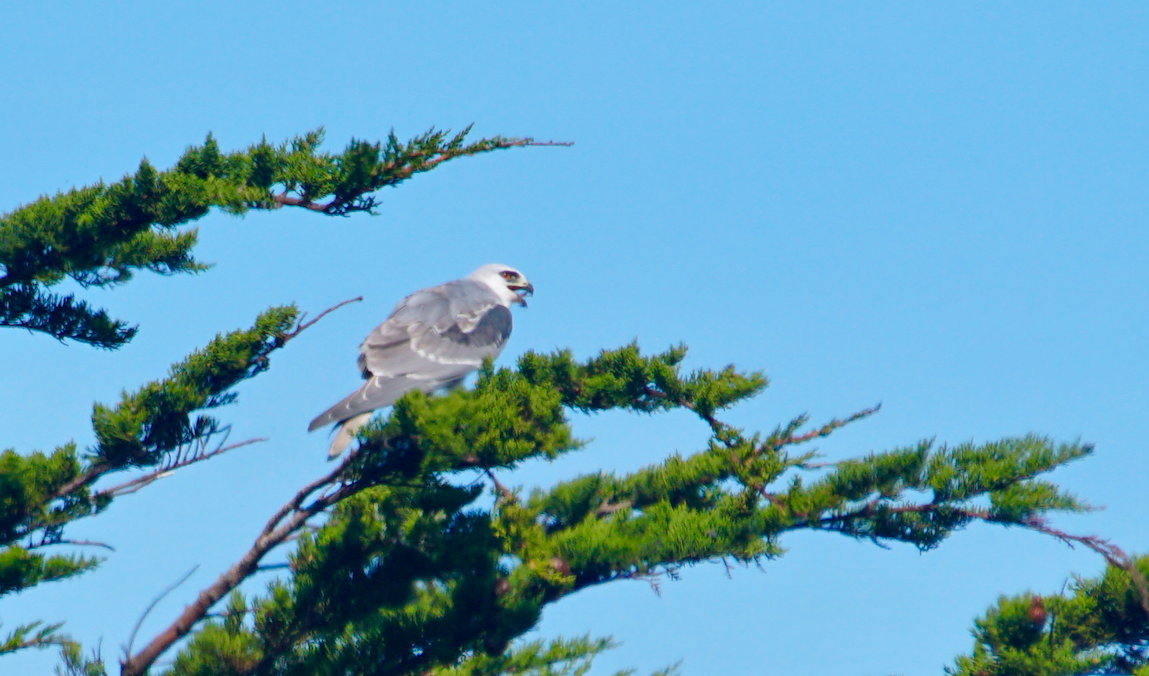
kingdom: Animalia
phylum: Chordata
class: Aves
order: Accipitriformes
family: Accipitridae
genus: Elanus
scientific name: Elanus leucurus
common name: White-tailed kite
